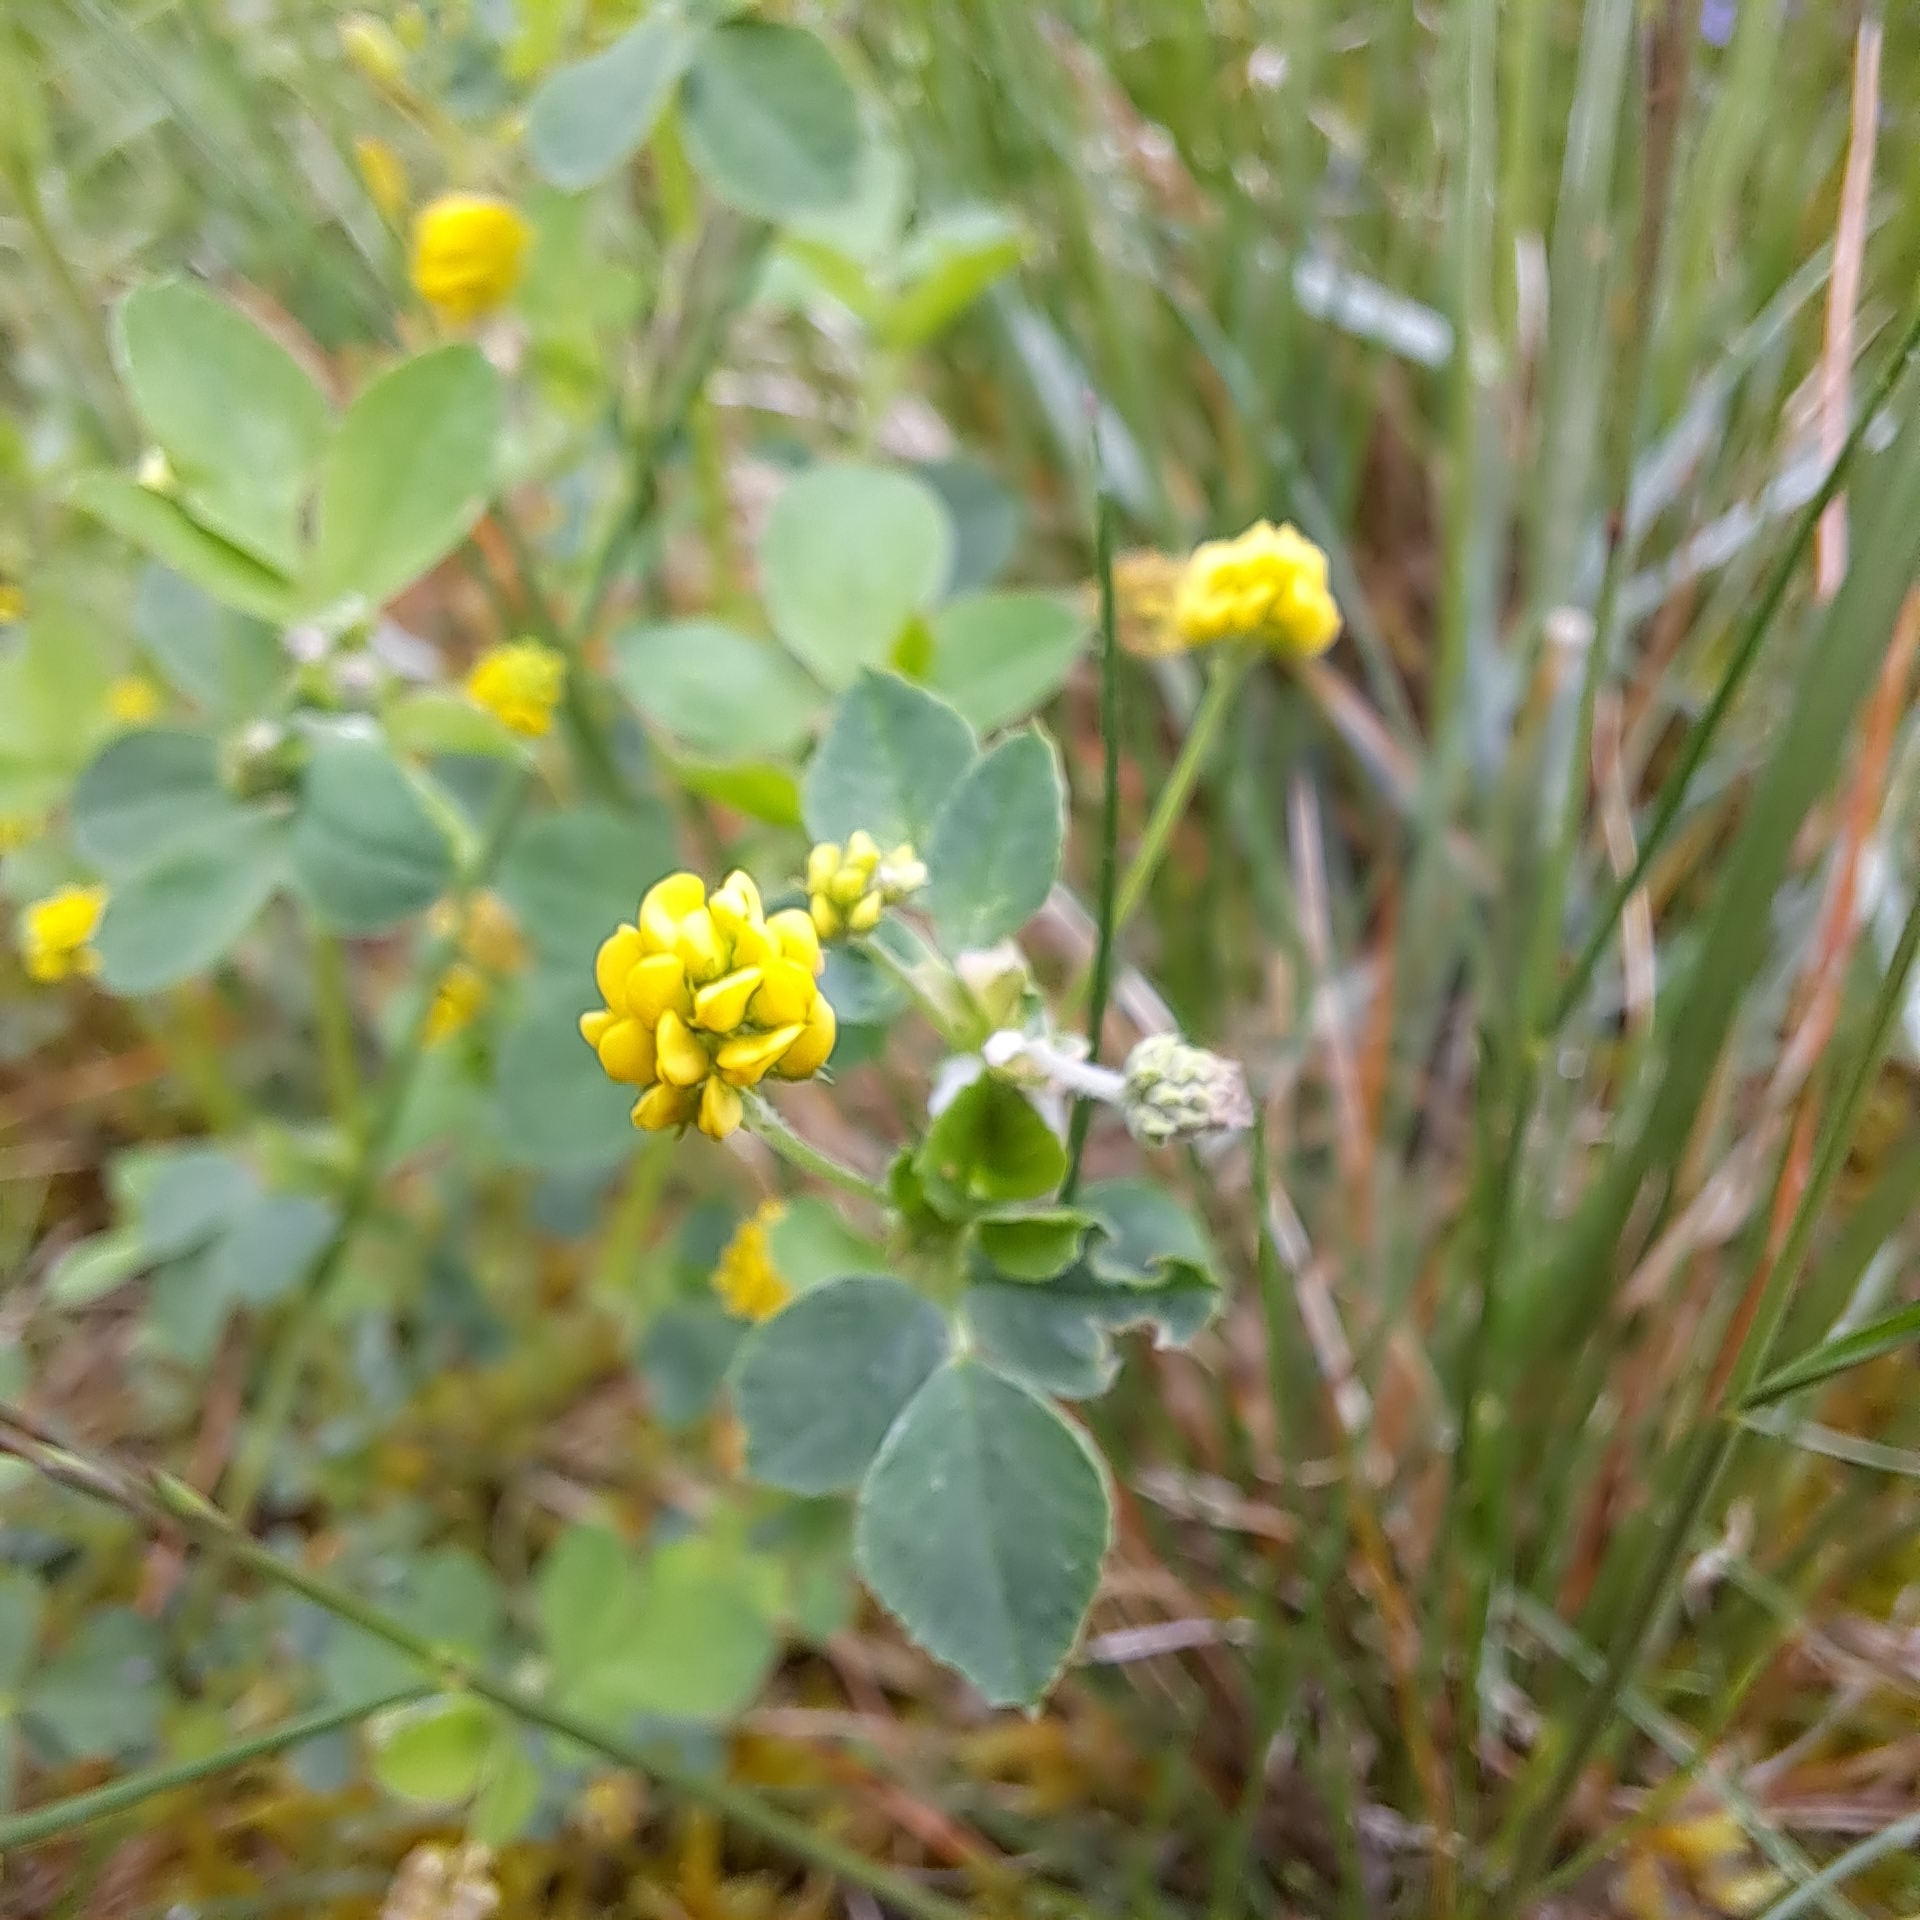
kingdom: Plantae
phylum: Tracheophyta
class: Magnoliopsida
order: Fabales
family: Fabaceae
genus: Medicago
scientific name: Medicago lupulina
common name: Black medick
